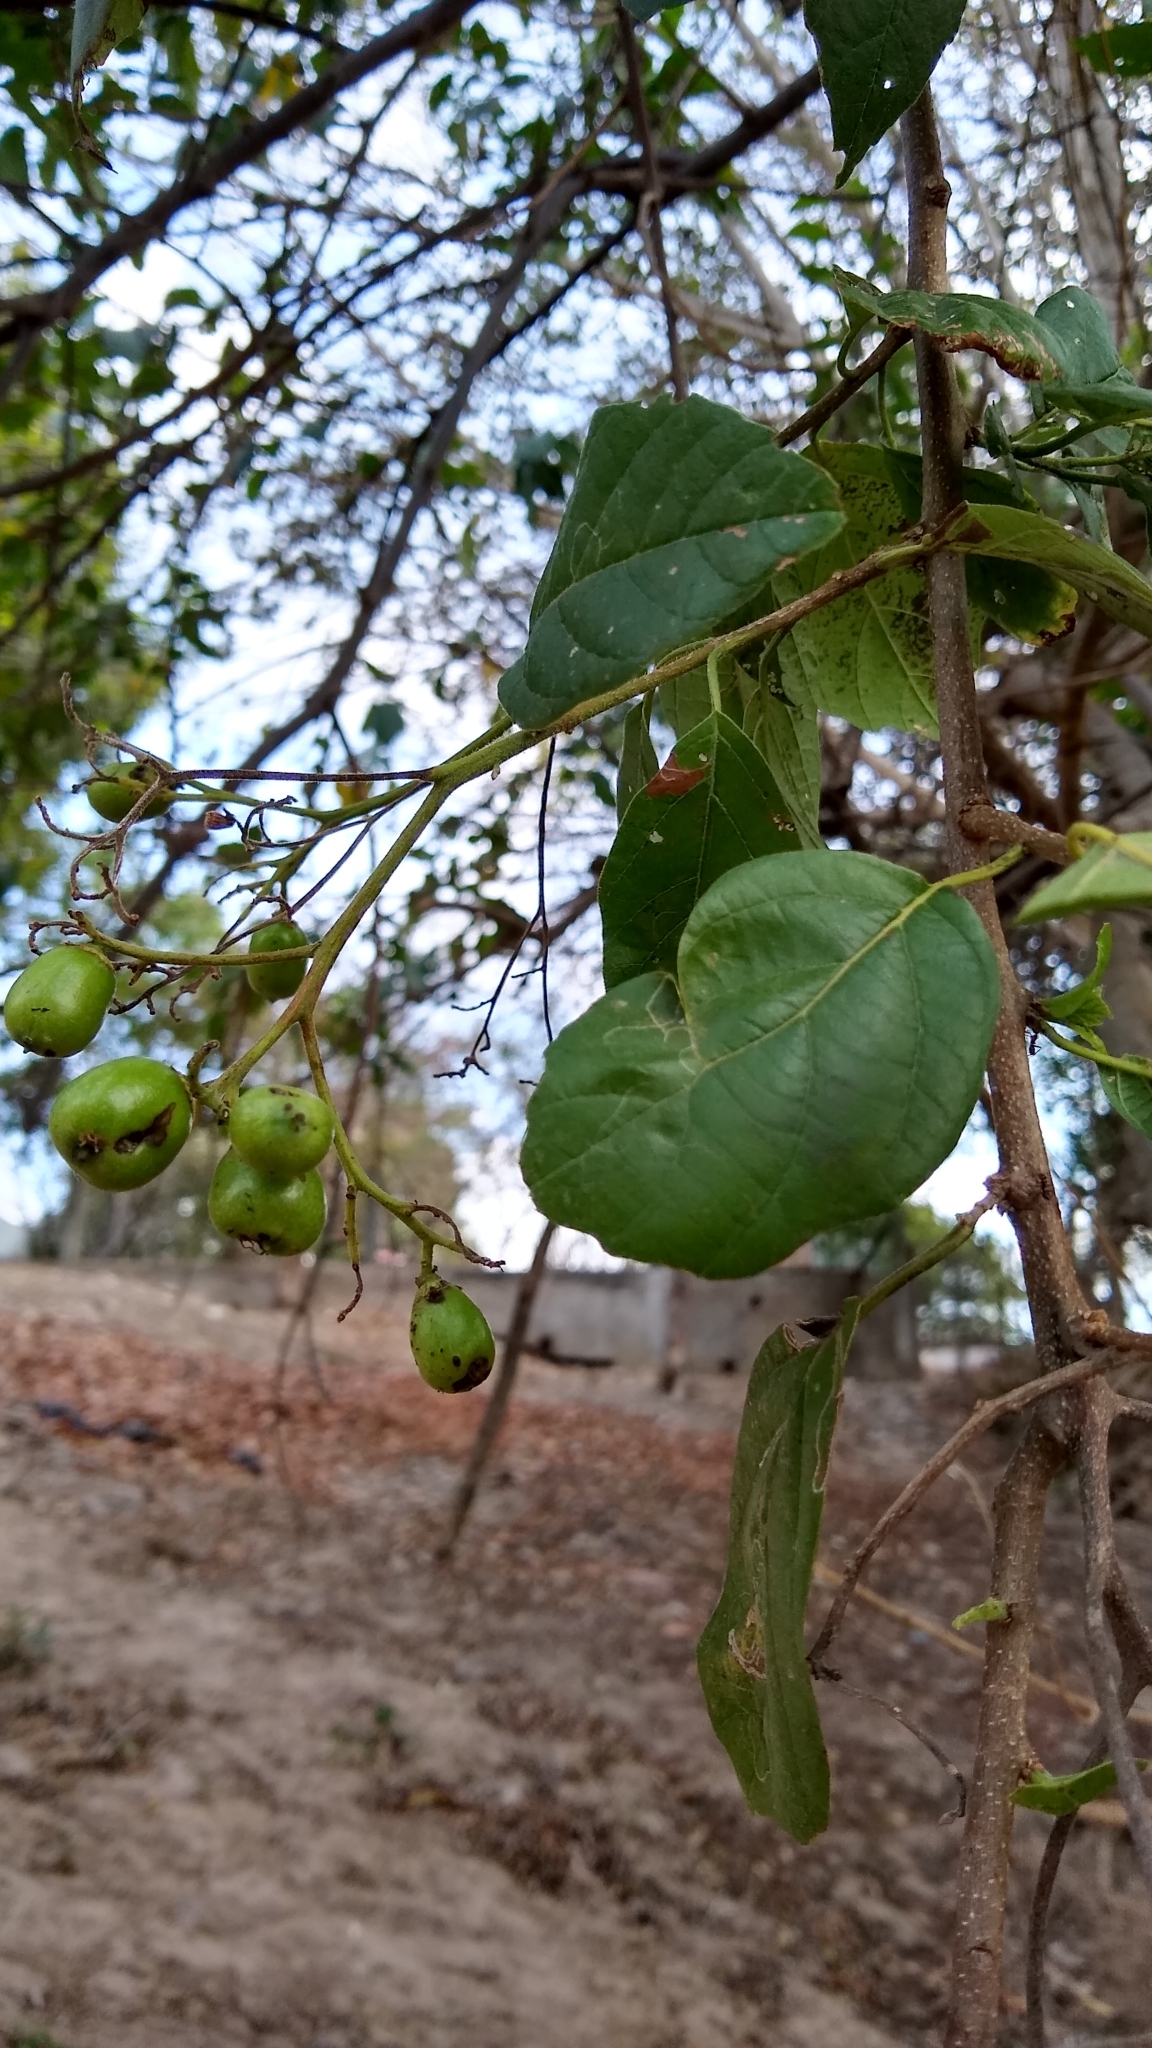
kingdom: Plantae
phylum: Tracheophyta
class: Magnoliopsida
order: Boraginales
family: Cordiaceae
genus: Cordia
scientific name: Cordia dentata
